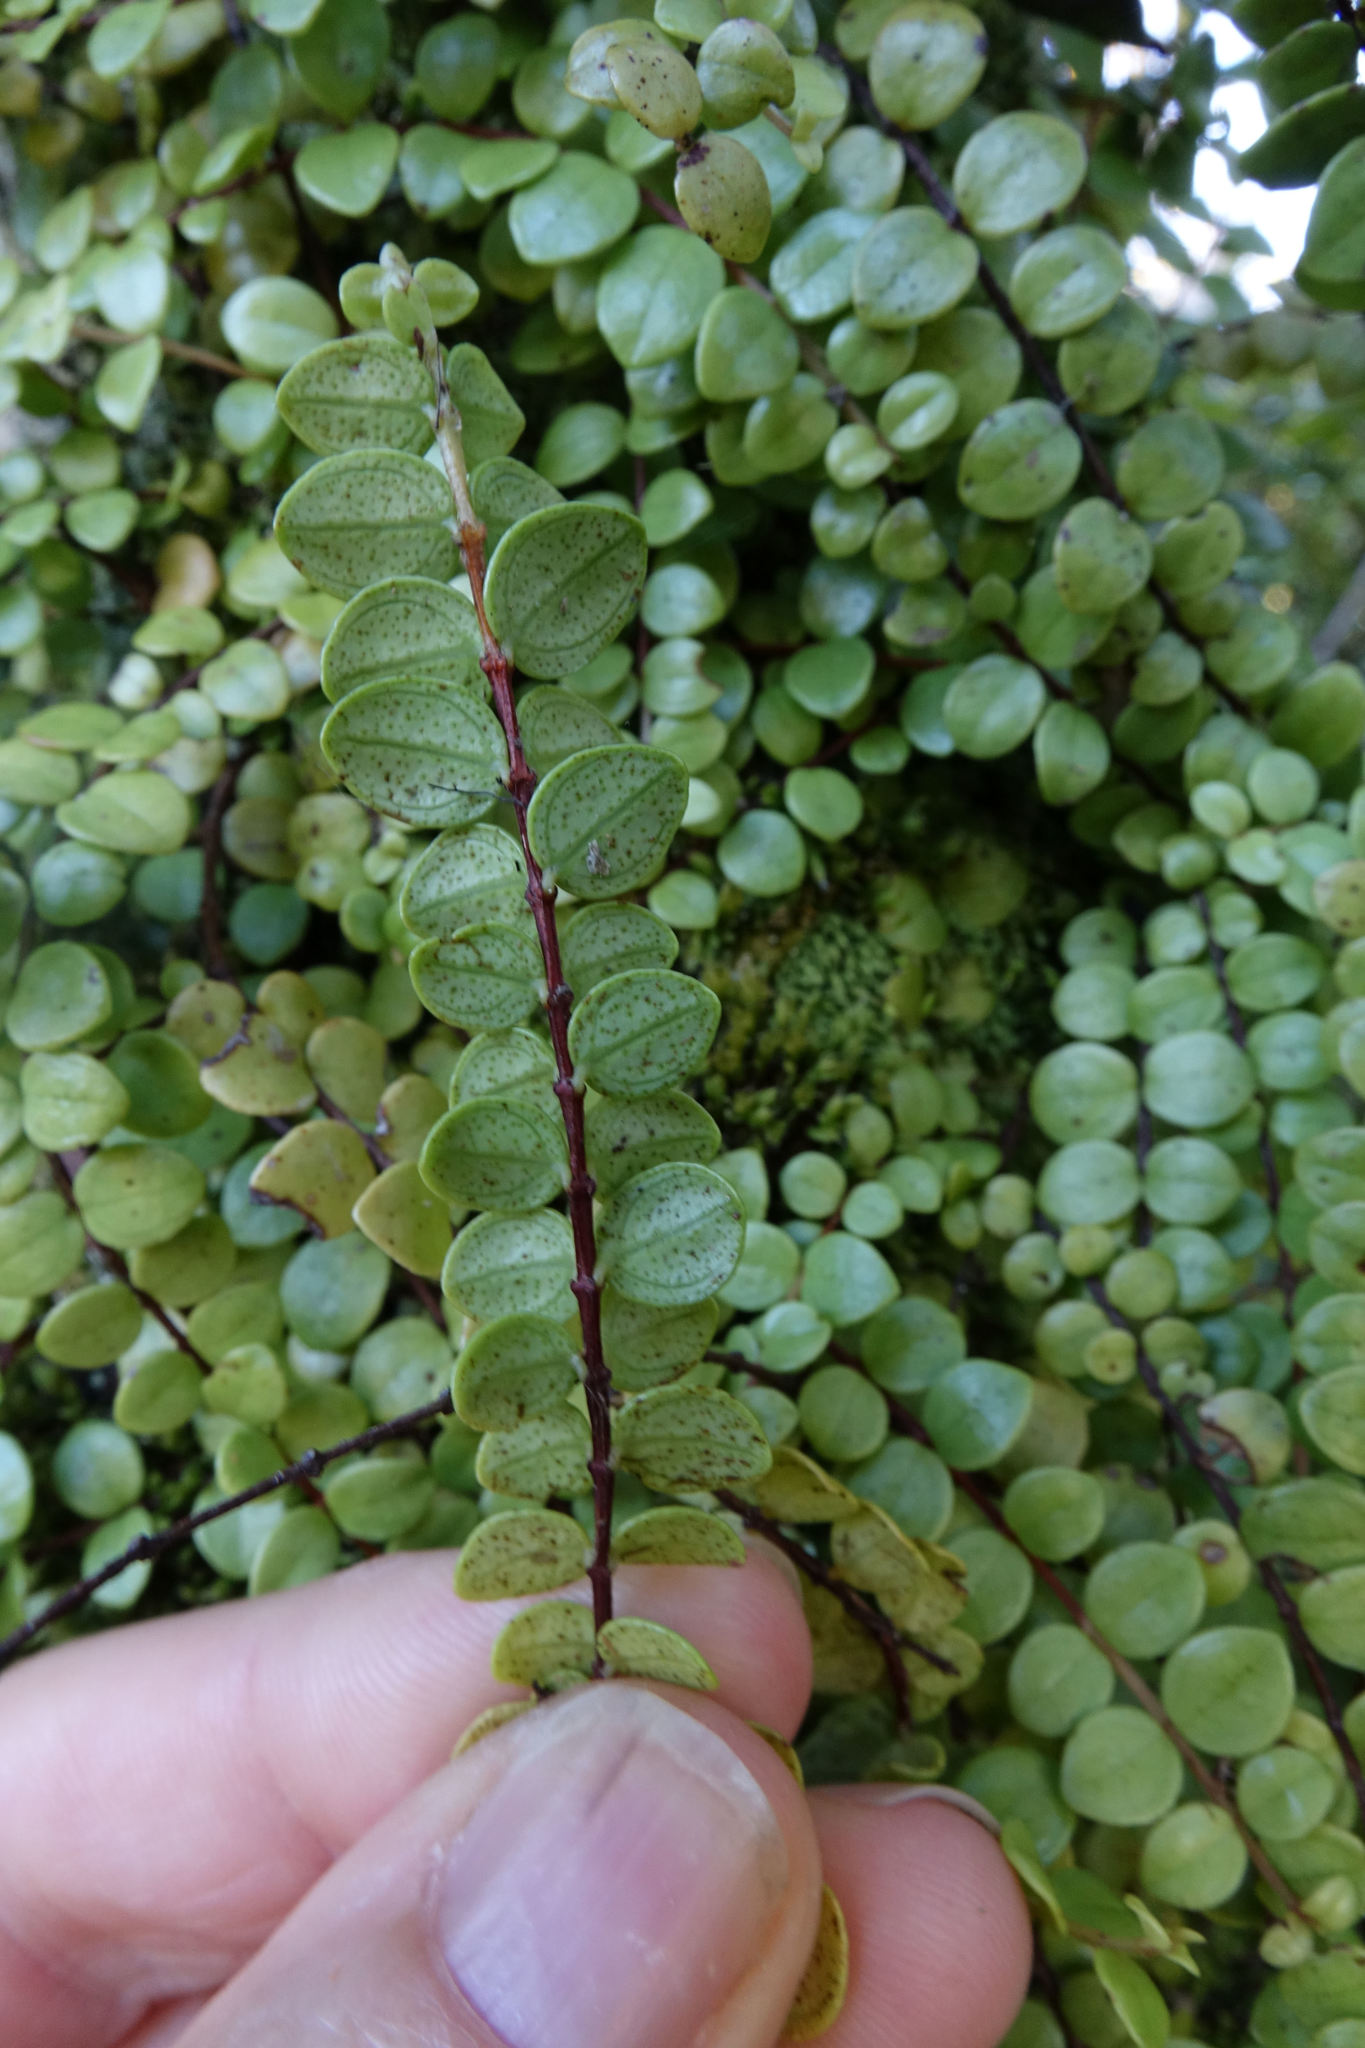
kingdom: Plantae
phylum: Tracheophyta
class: Magnoliopsida
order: Myrtales
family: Myrtaceae
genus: Metrosideros
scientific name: Metrosideros perforata
